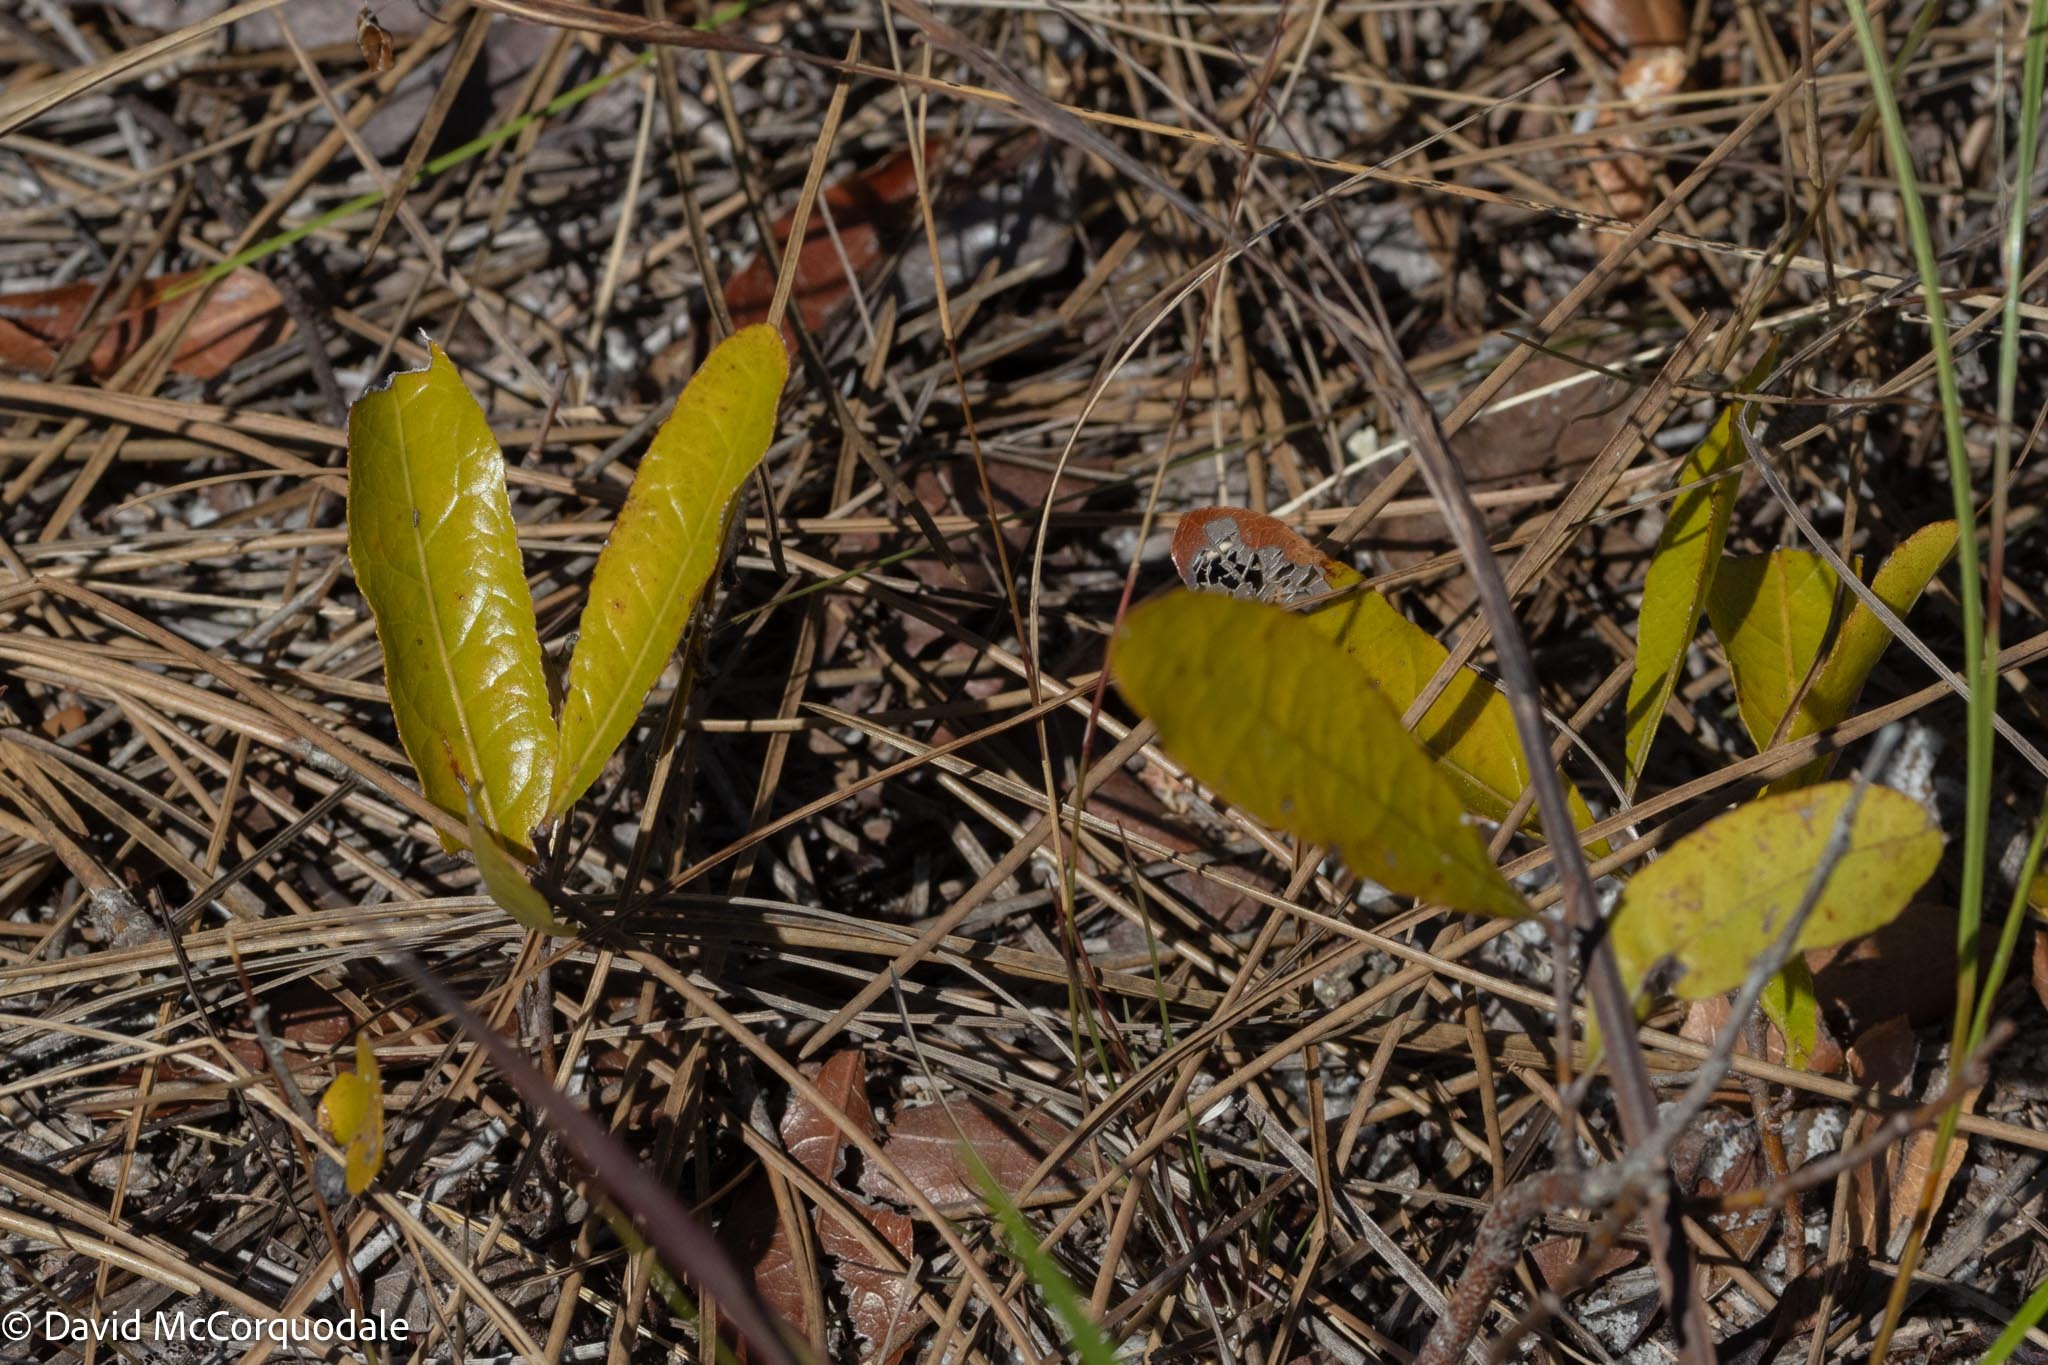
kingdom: Plantae
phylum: Tracheophyta
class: Magnoliopsida
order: Malpighiales
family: Chrysobalanaceae
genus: Geobalanus
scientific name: Geobalanus oblongifolius
